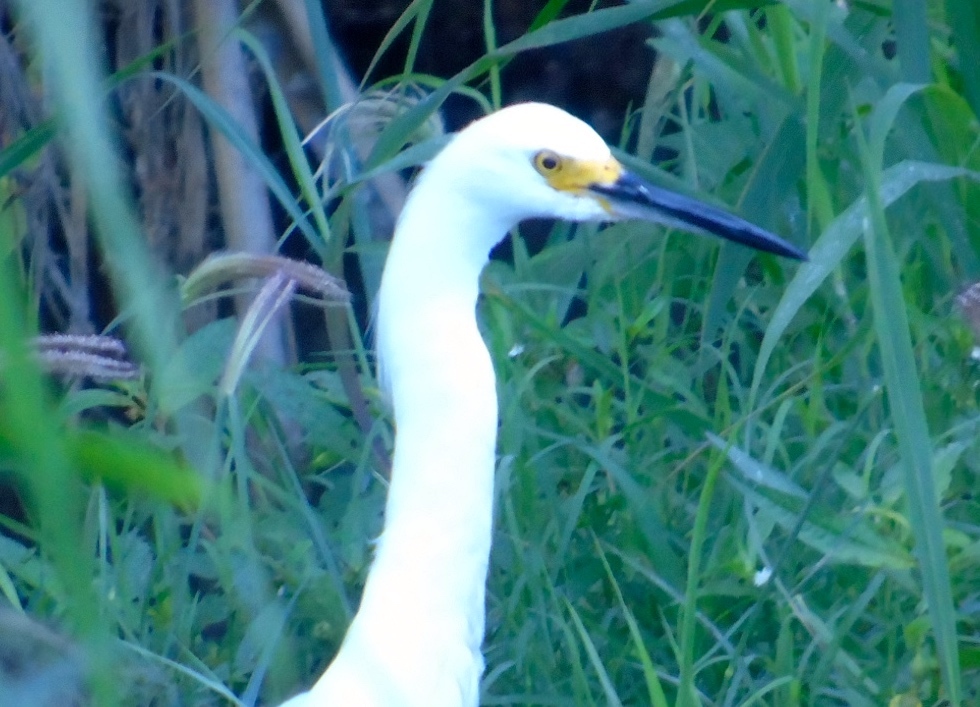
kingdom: Animalia
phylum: Chordata
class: Aves
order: Pelecaniformes
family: Ardeidae
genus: Egretta
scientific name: Egretta thula
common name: Snowy egret
